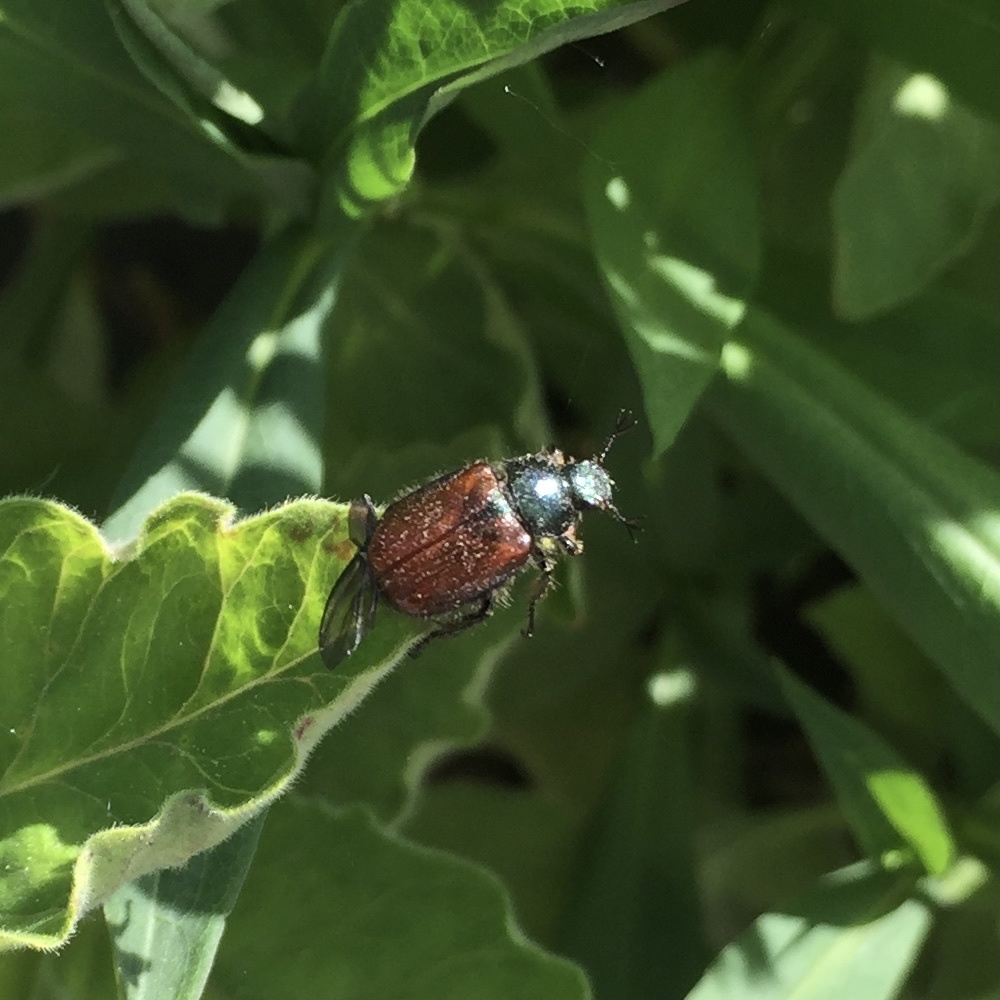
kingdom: Animalia
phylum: Arthropoda
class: Insecta
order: Coleoptera
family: Scarabaeidae
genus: Phyllopertha
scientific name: Phyllopertha horticola
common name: Garden chafer
